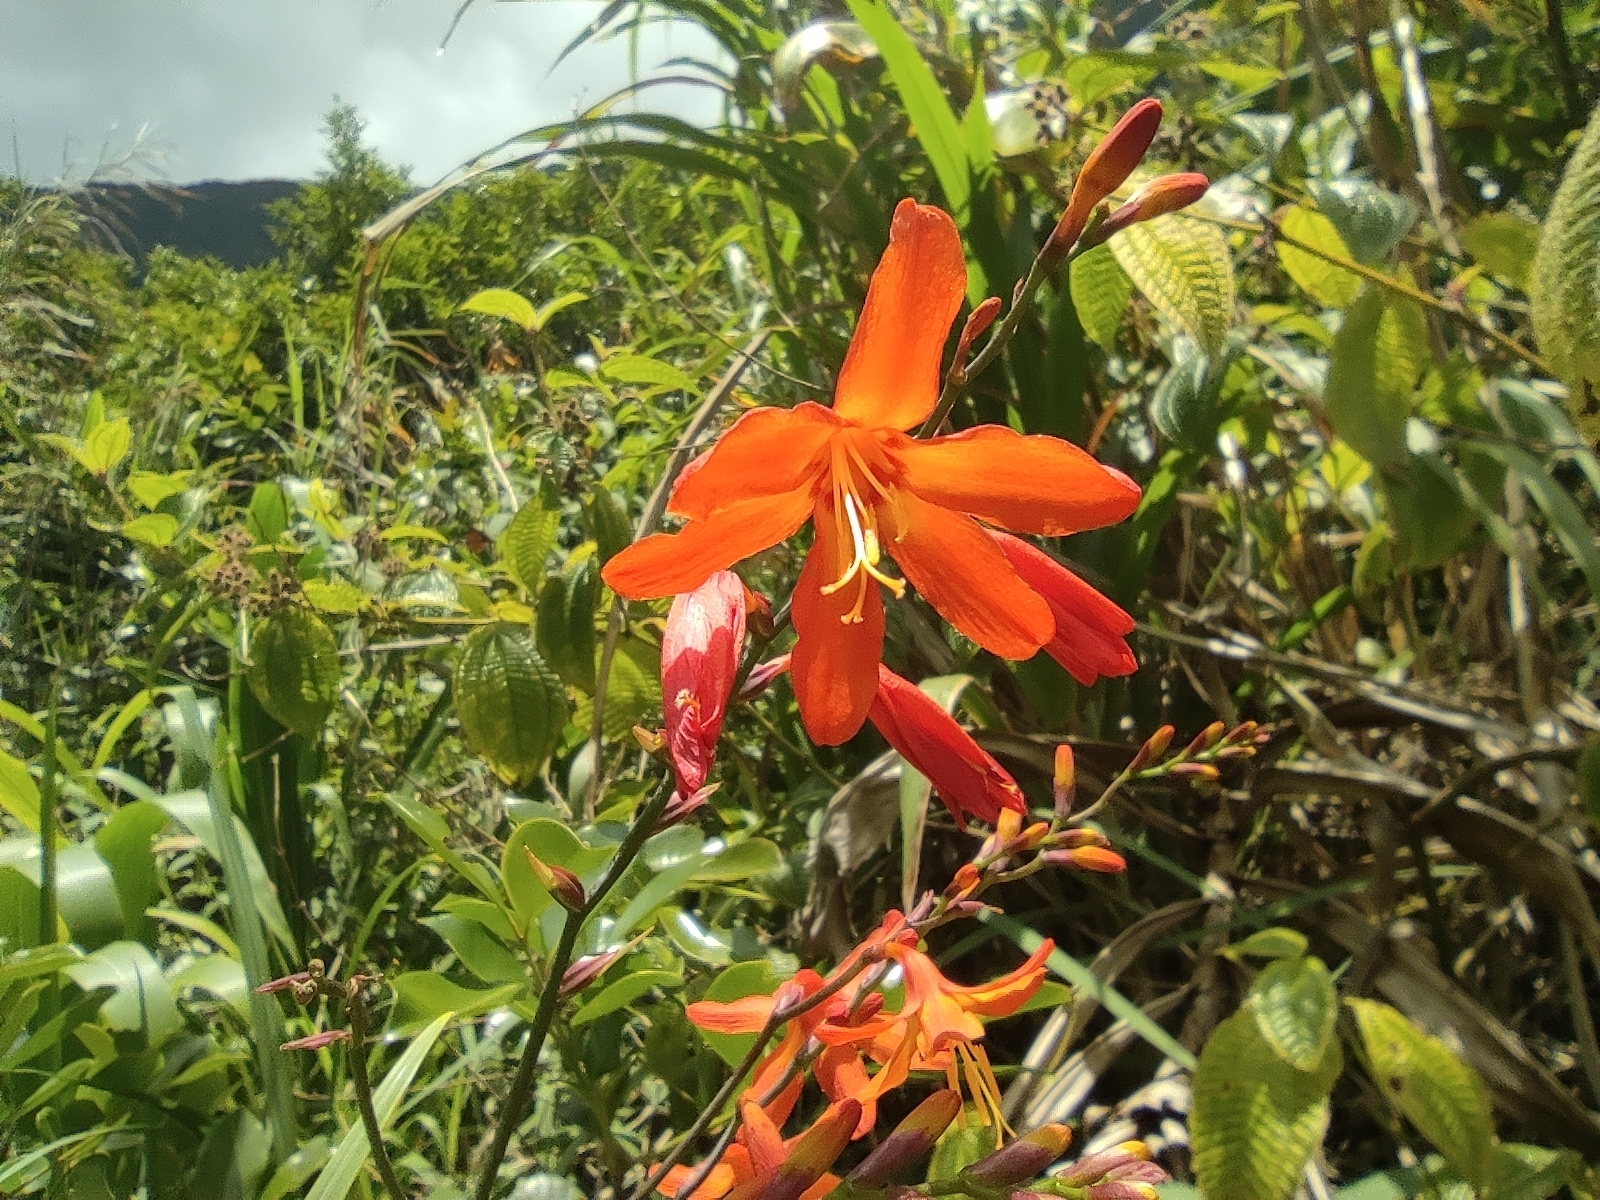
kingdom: Plantae
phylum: Tracheophyta
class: Liliopsida
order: Asparagales
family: Iridaceae
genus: Crocosmia
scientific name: Crocosmia crocosmiiflora
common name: Montbretia
